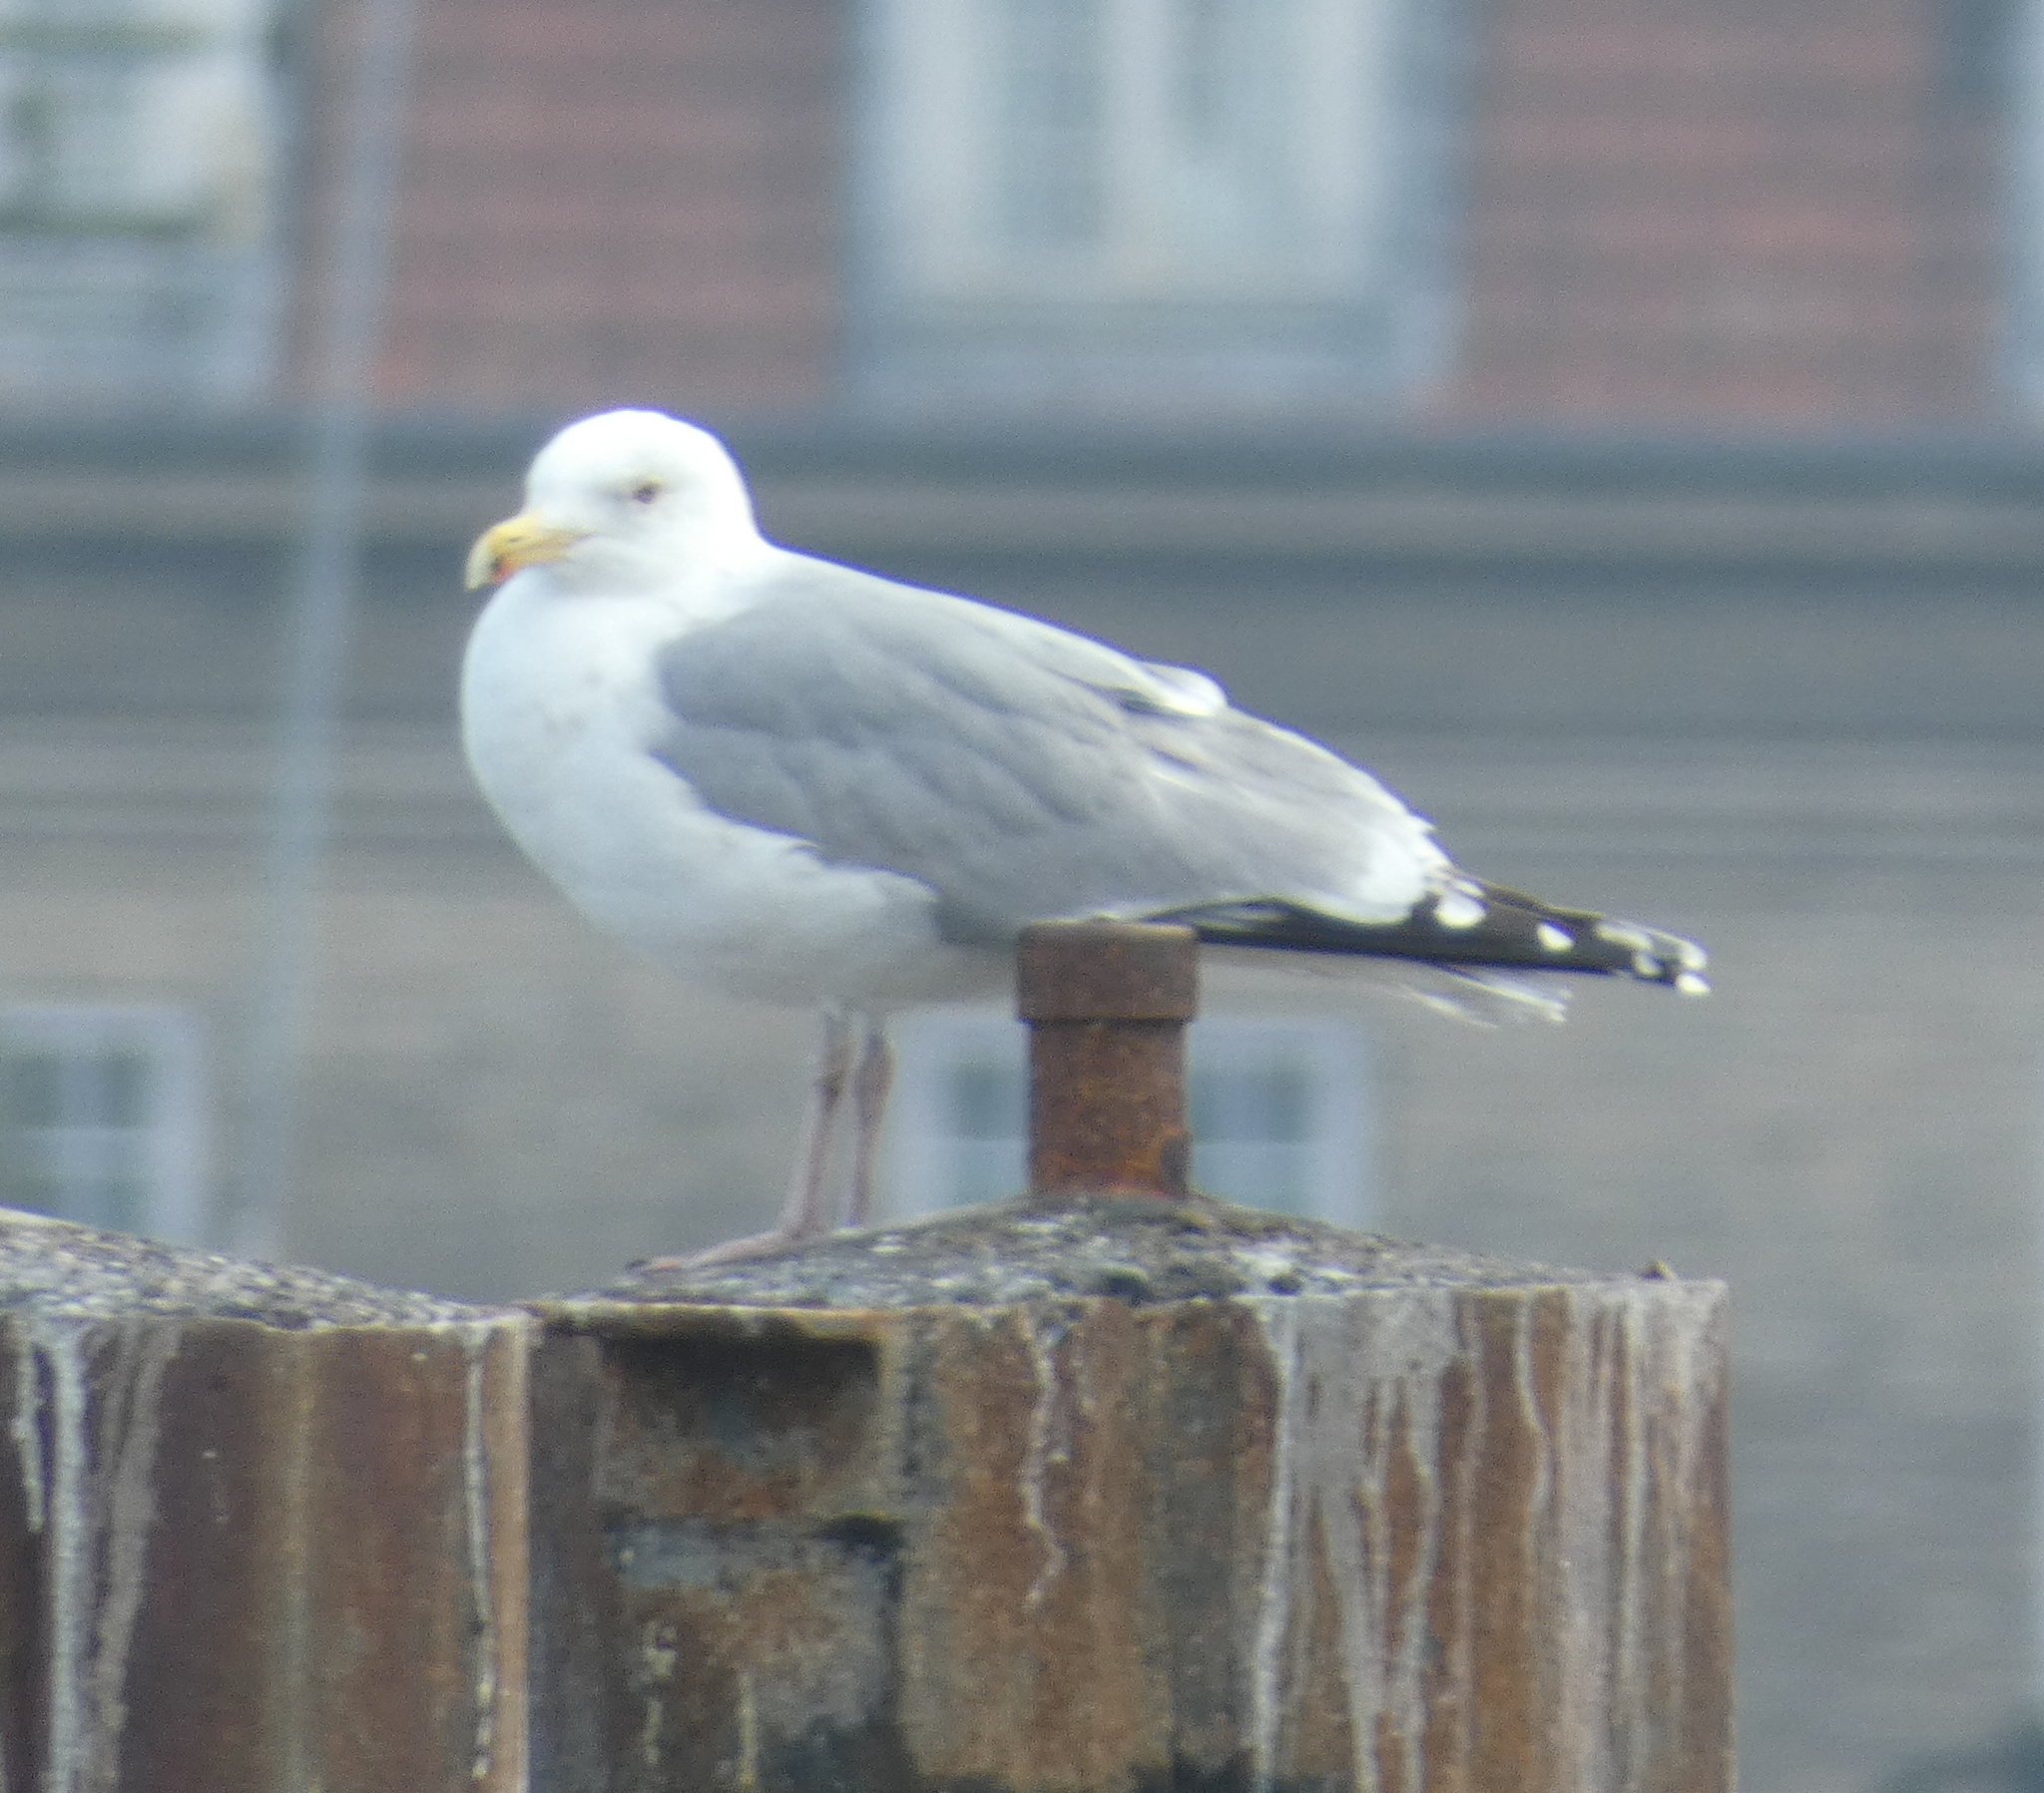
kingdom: Animalia
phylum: Chordata
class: Aves
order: Charadriiformes
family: Laridae
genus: Larus
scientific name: Larus argentatus
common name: Herring gull
